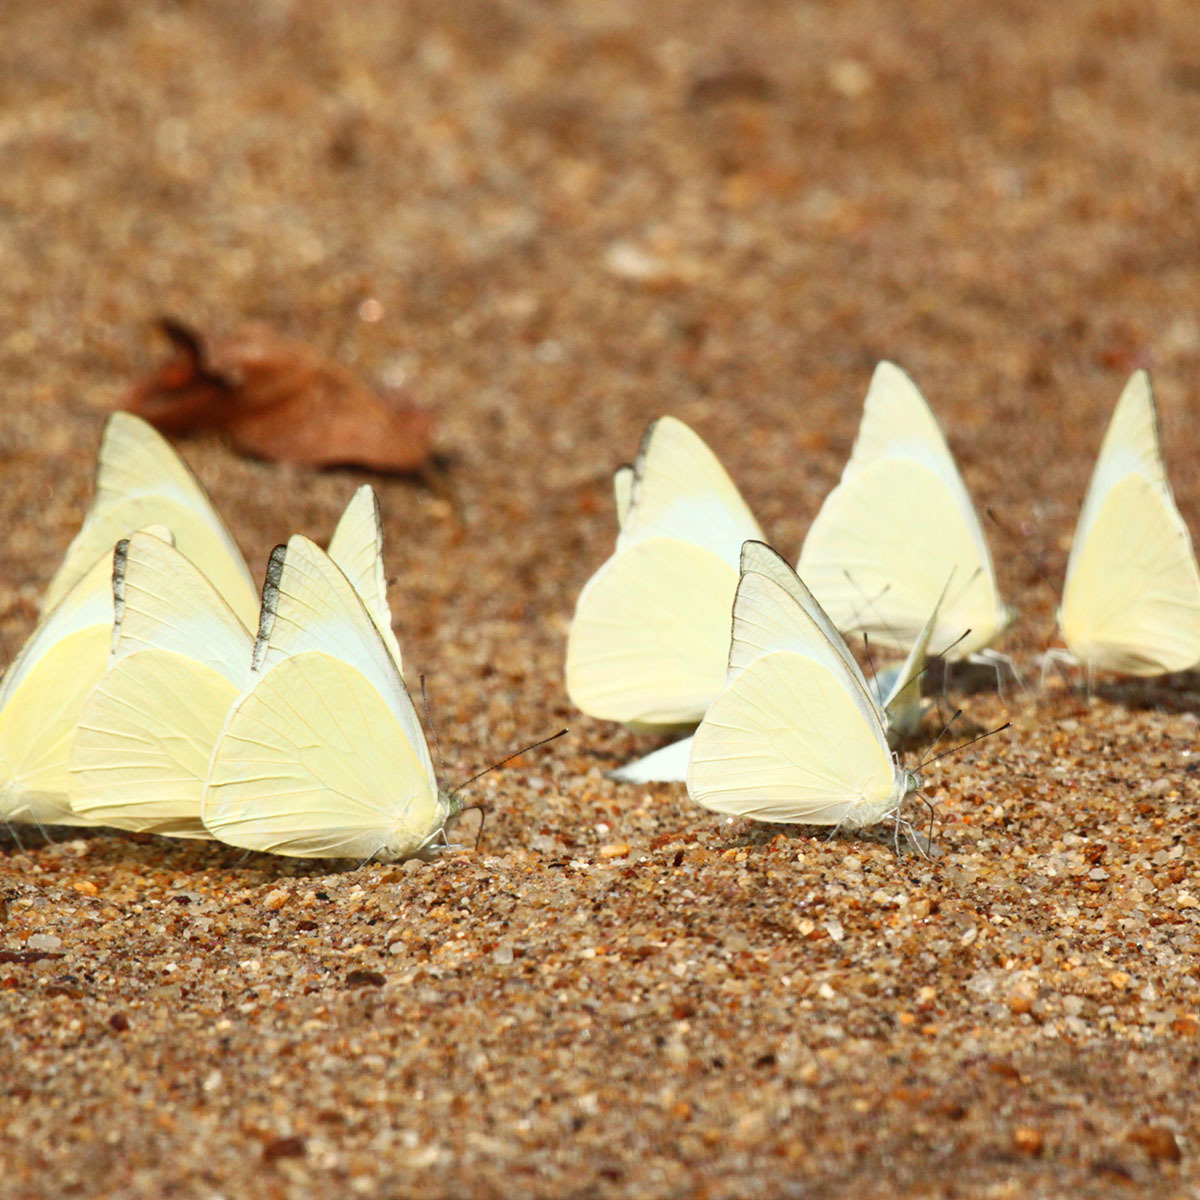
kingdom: Animalia
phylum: Arthropoda
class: Insecta
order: Lepidoptera
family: Pieridae
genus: Appias
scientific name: Appias albina
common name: Common albatross
